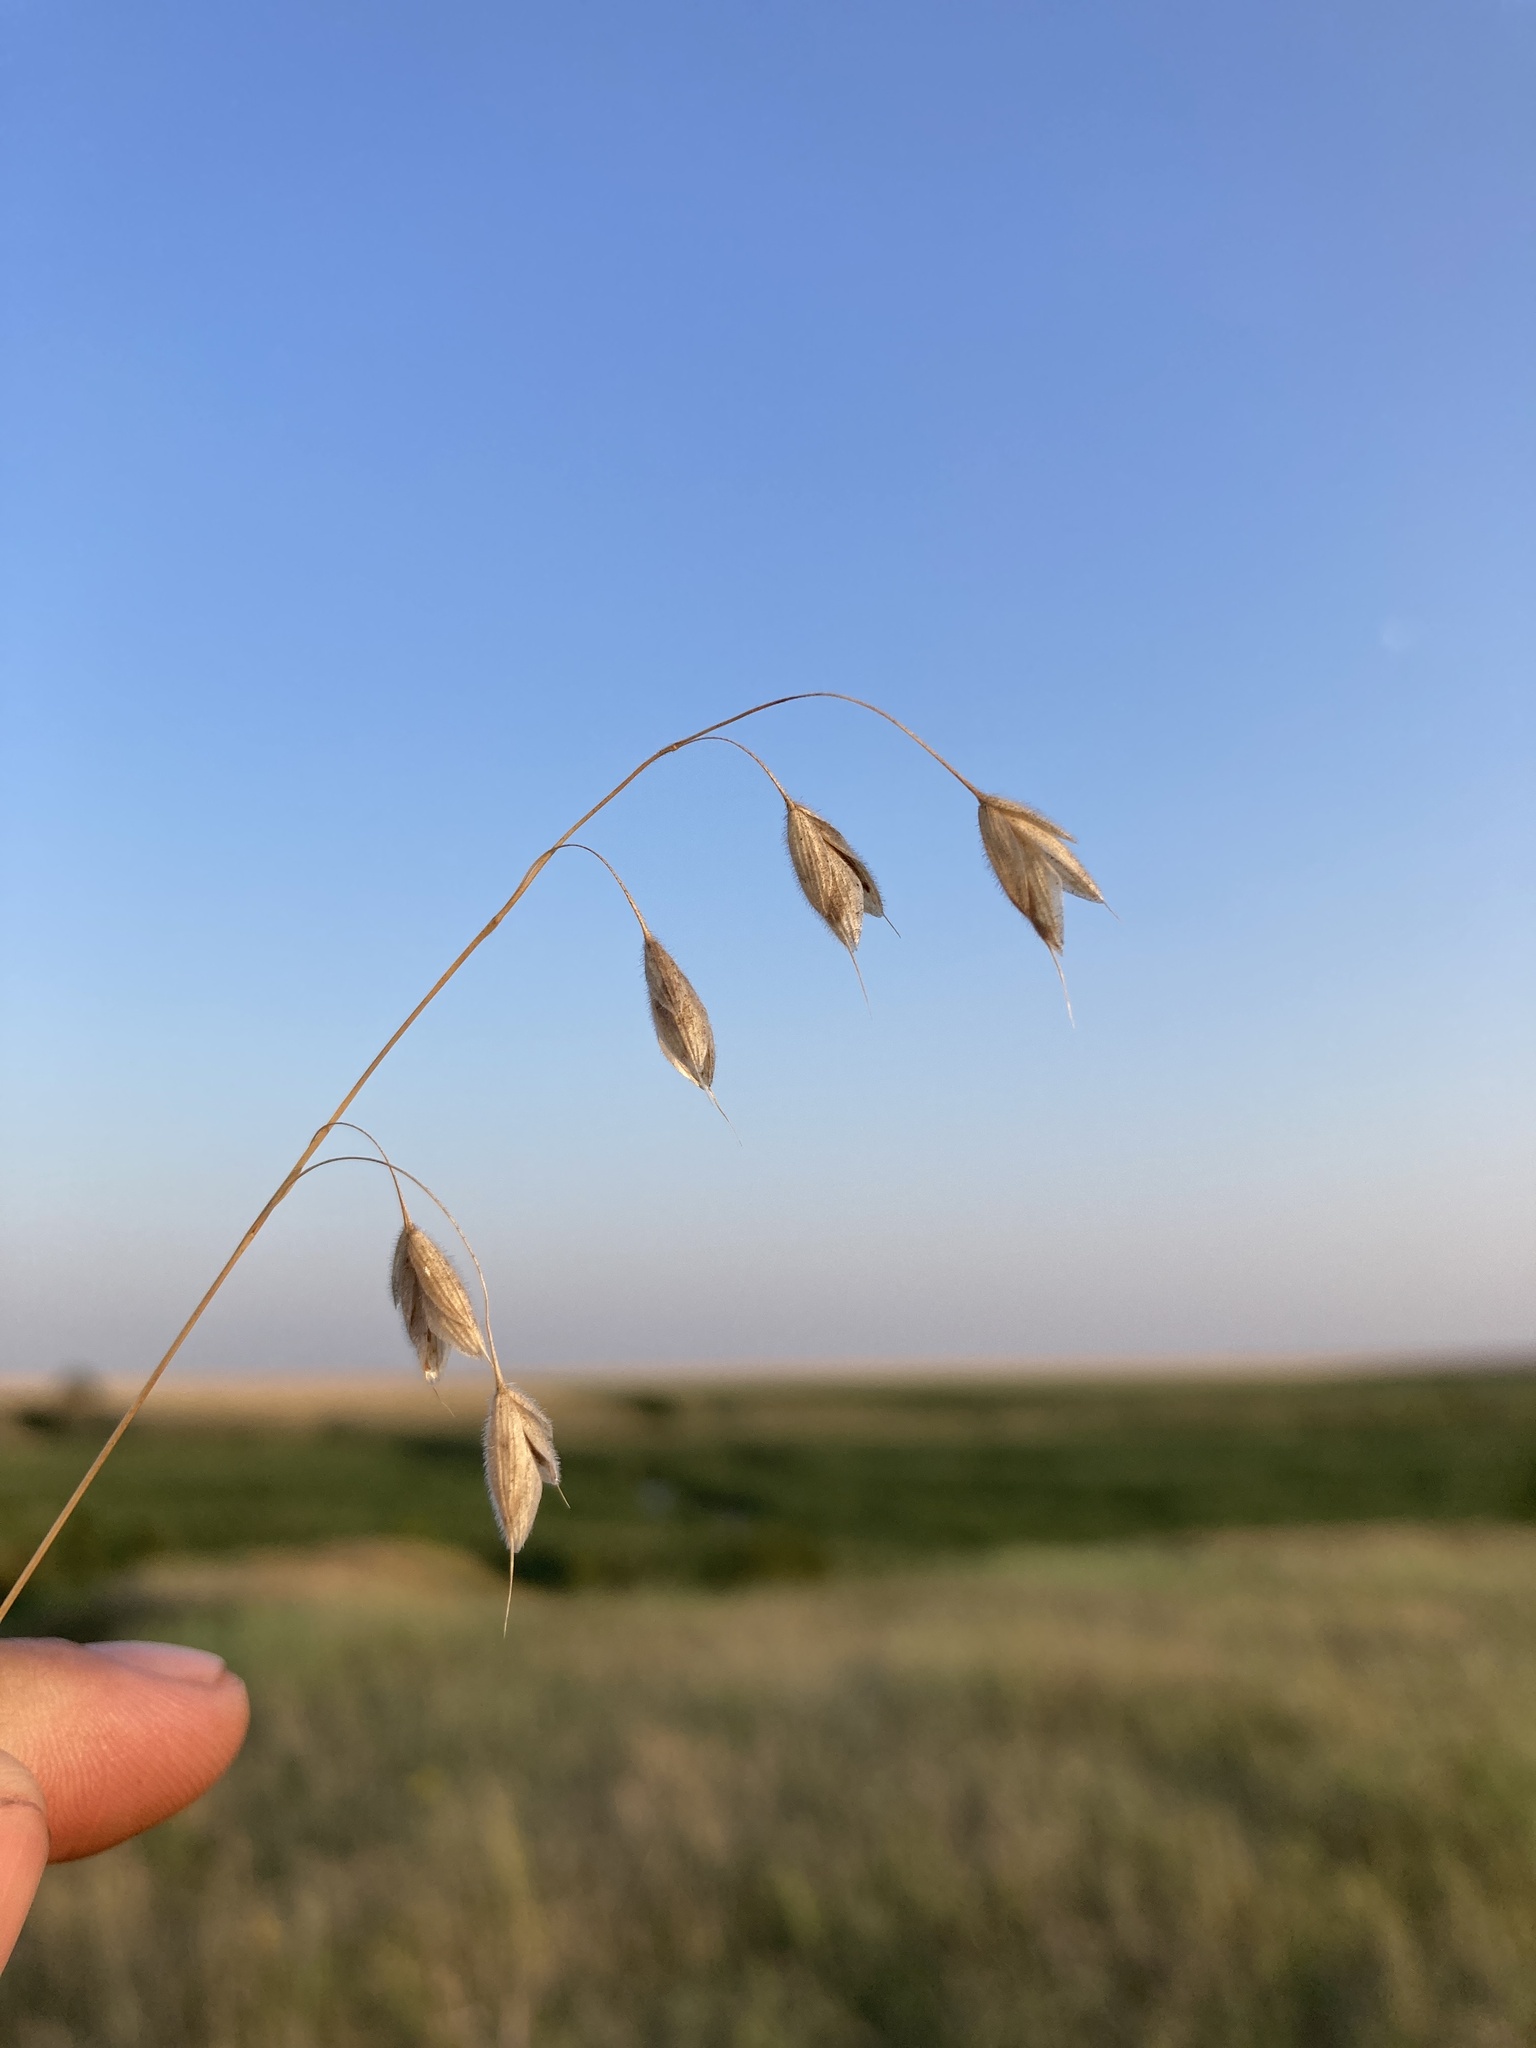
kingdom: Plantae
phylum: Tracheophyta
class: Liliopsida
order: Poales
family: Poaceae
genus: Bromus
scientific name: Bromus squarrosus
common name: Corn brome
